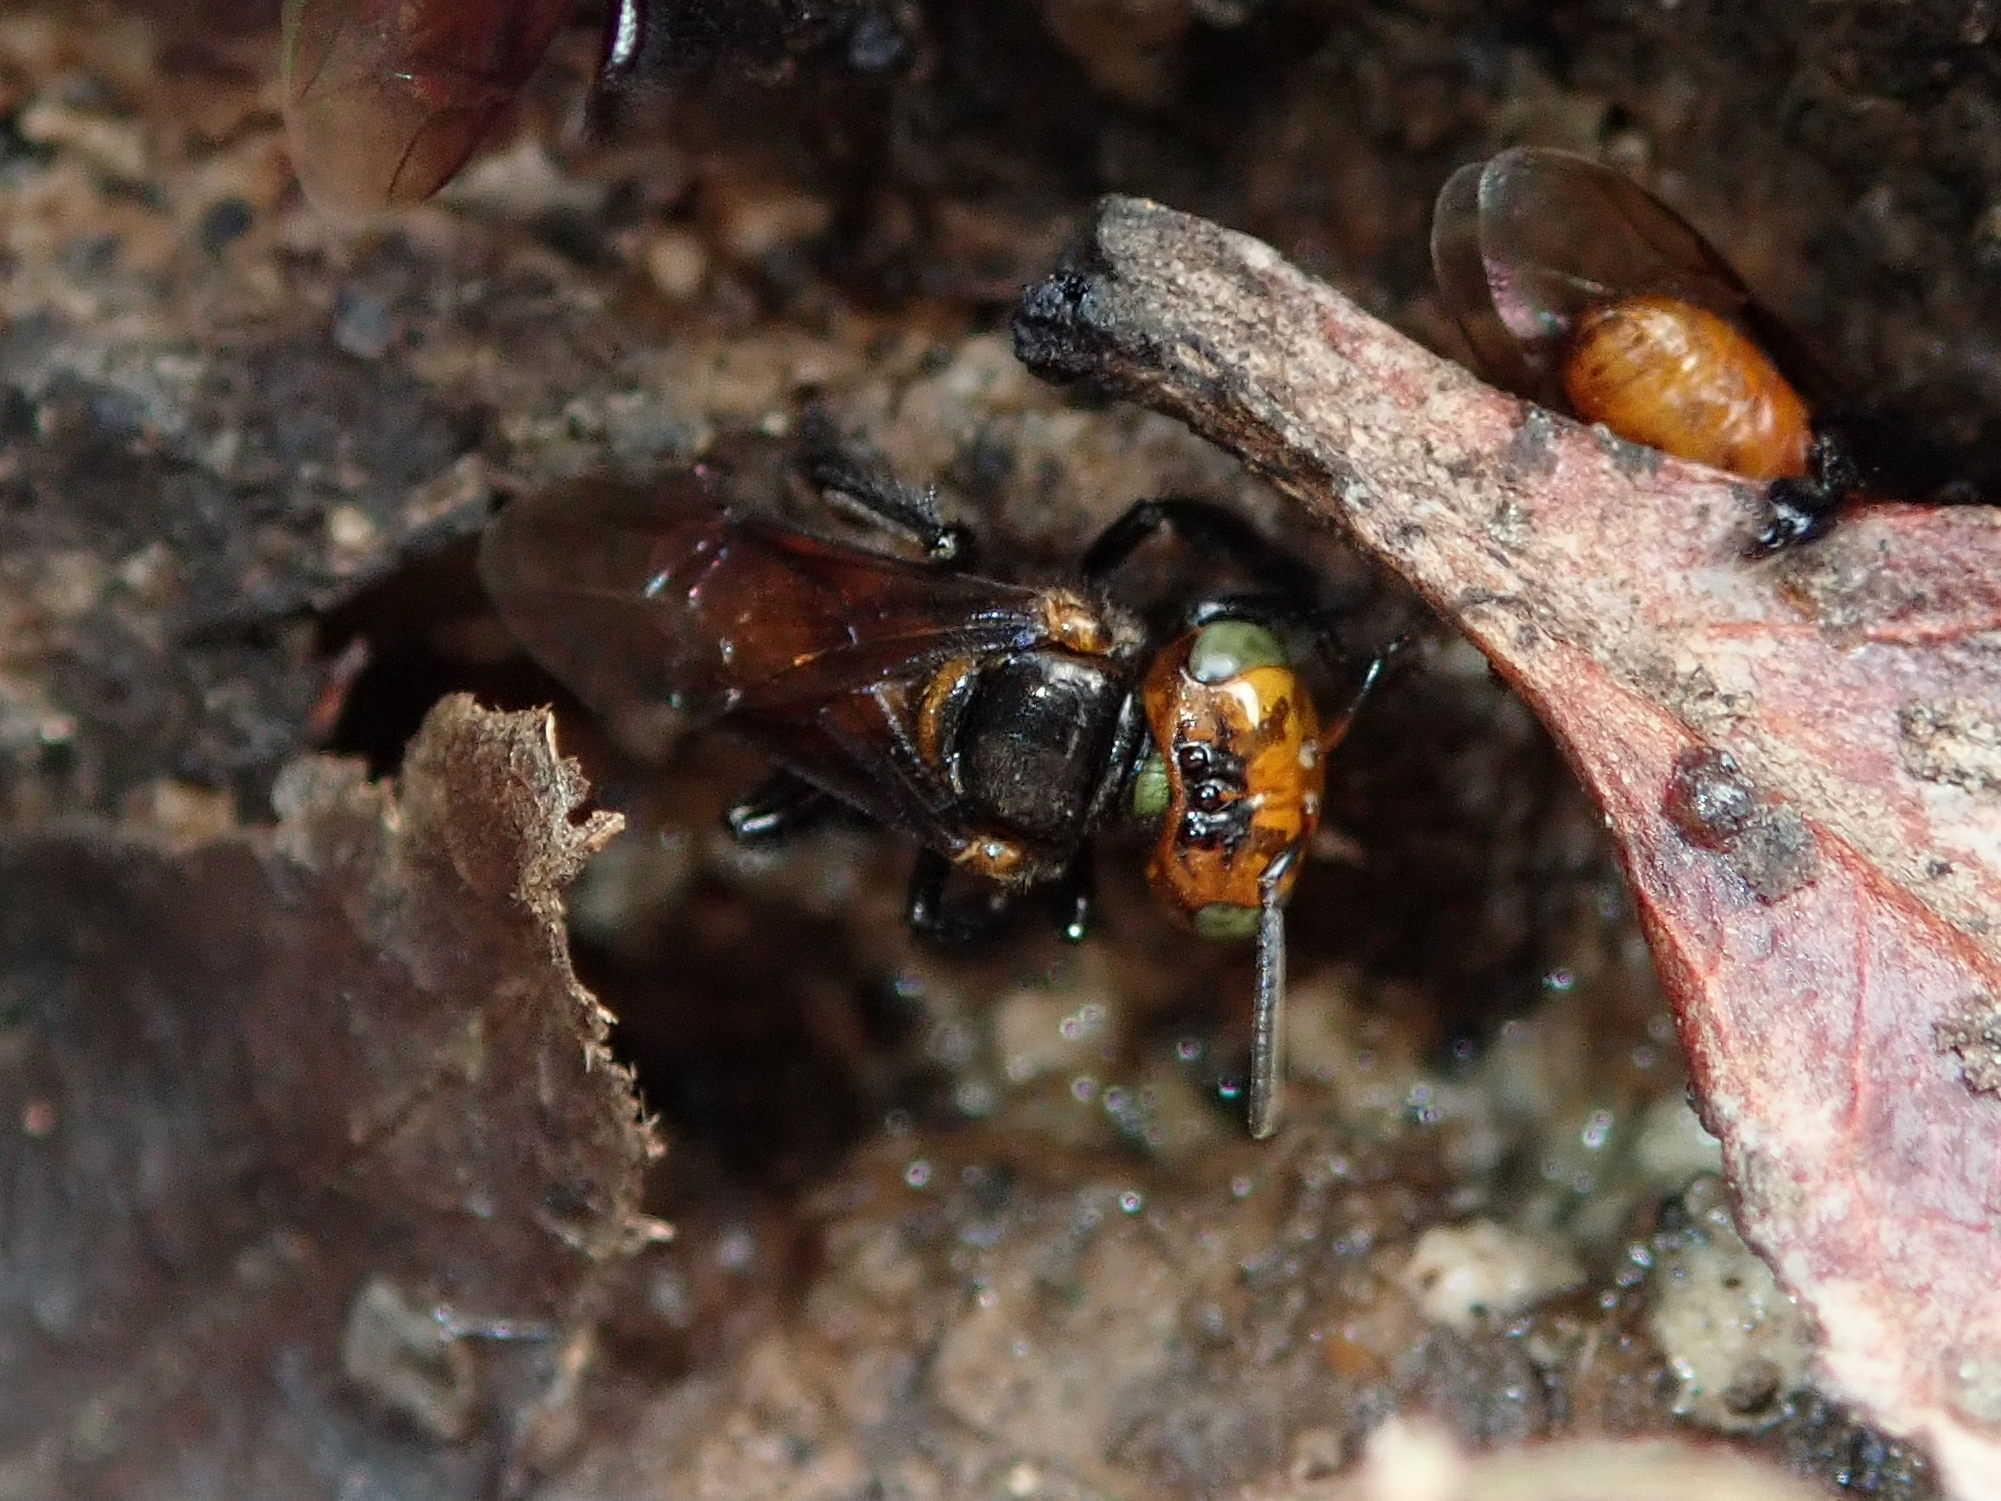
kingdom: Animalia
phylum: Arthropoda
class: Insecta
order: Hymenoptera
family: Apidae
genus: Oxytrigona
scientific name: Oxytrigona tataira
